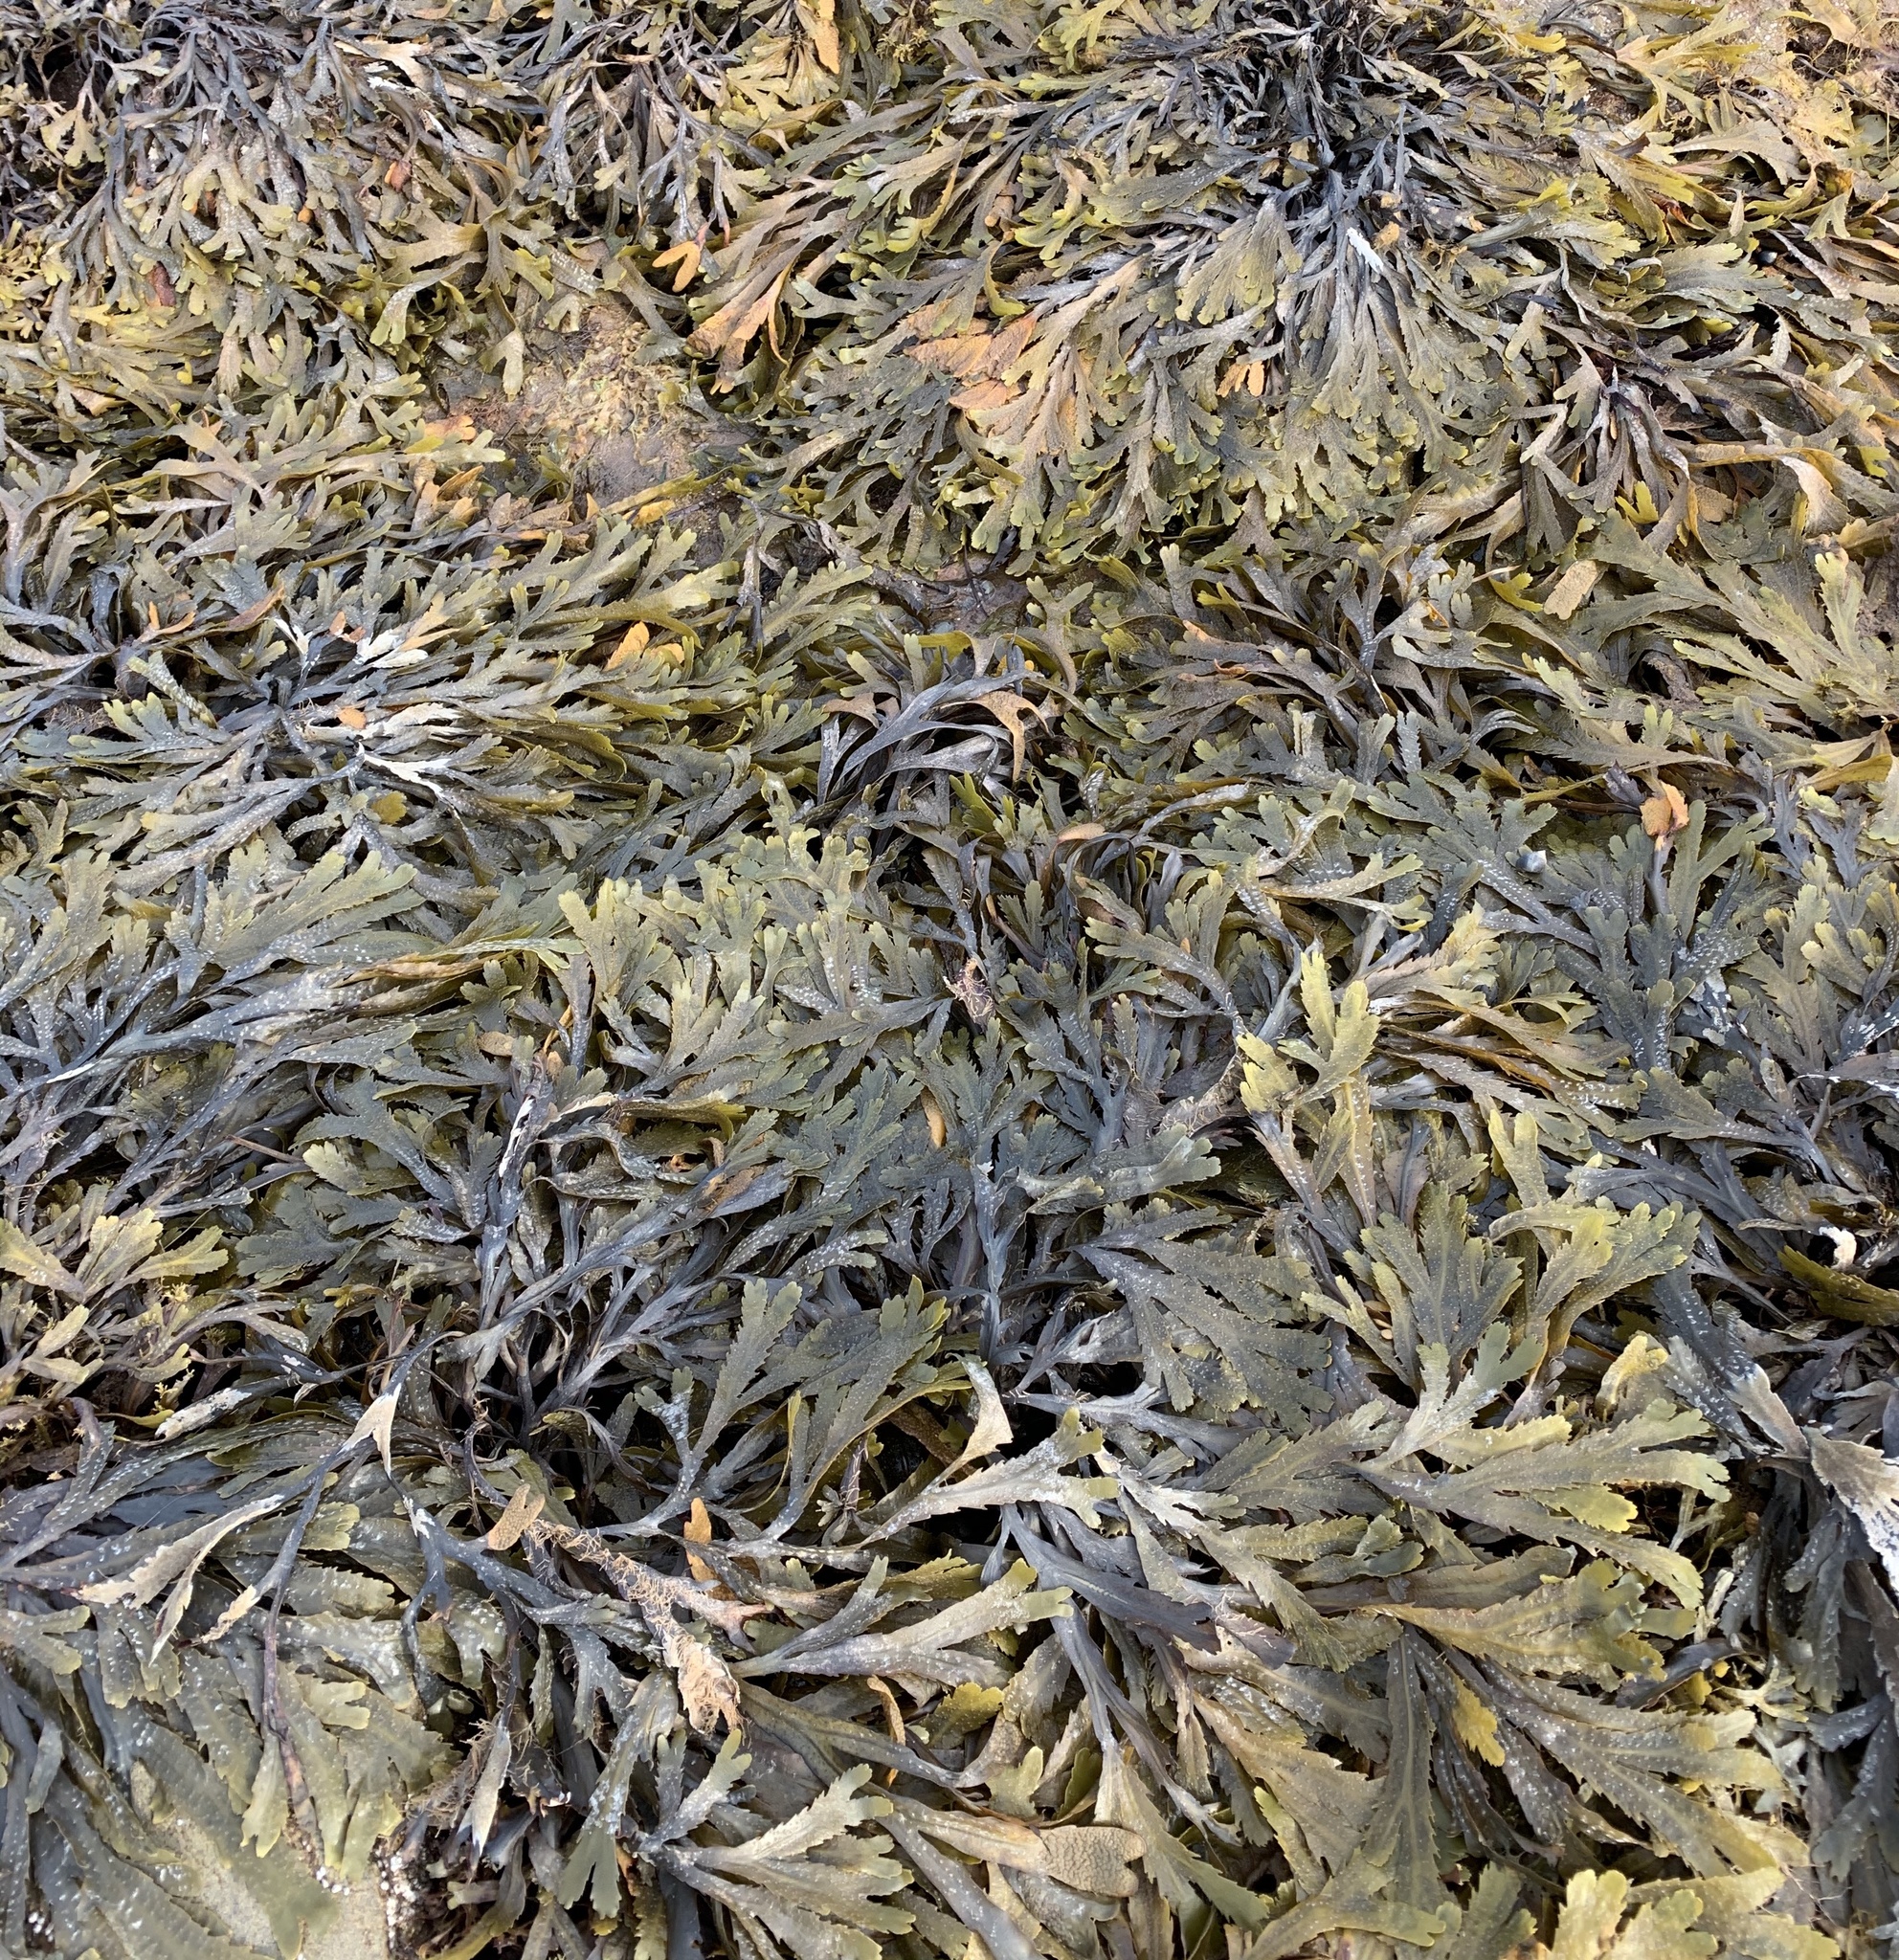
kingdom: Chromista
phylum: Ochrophyta
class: Phaeophyceae
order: Fucales
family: Fucaceae
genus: Fucus
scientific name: Fucus serratus
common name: Toothed wrack
